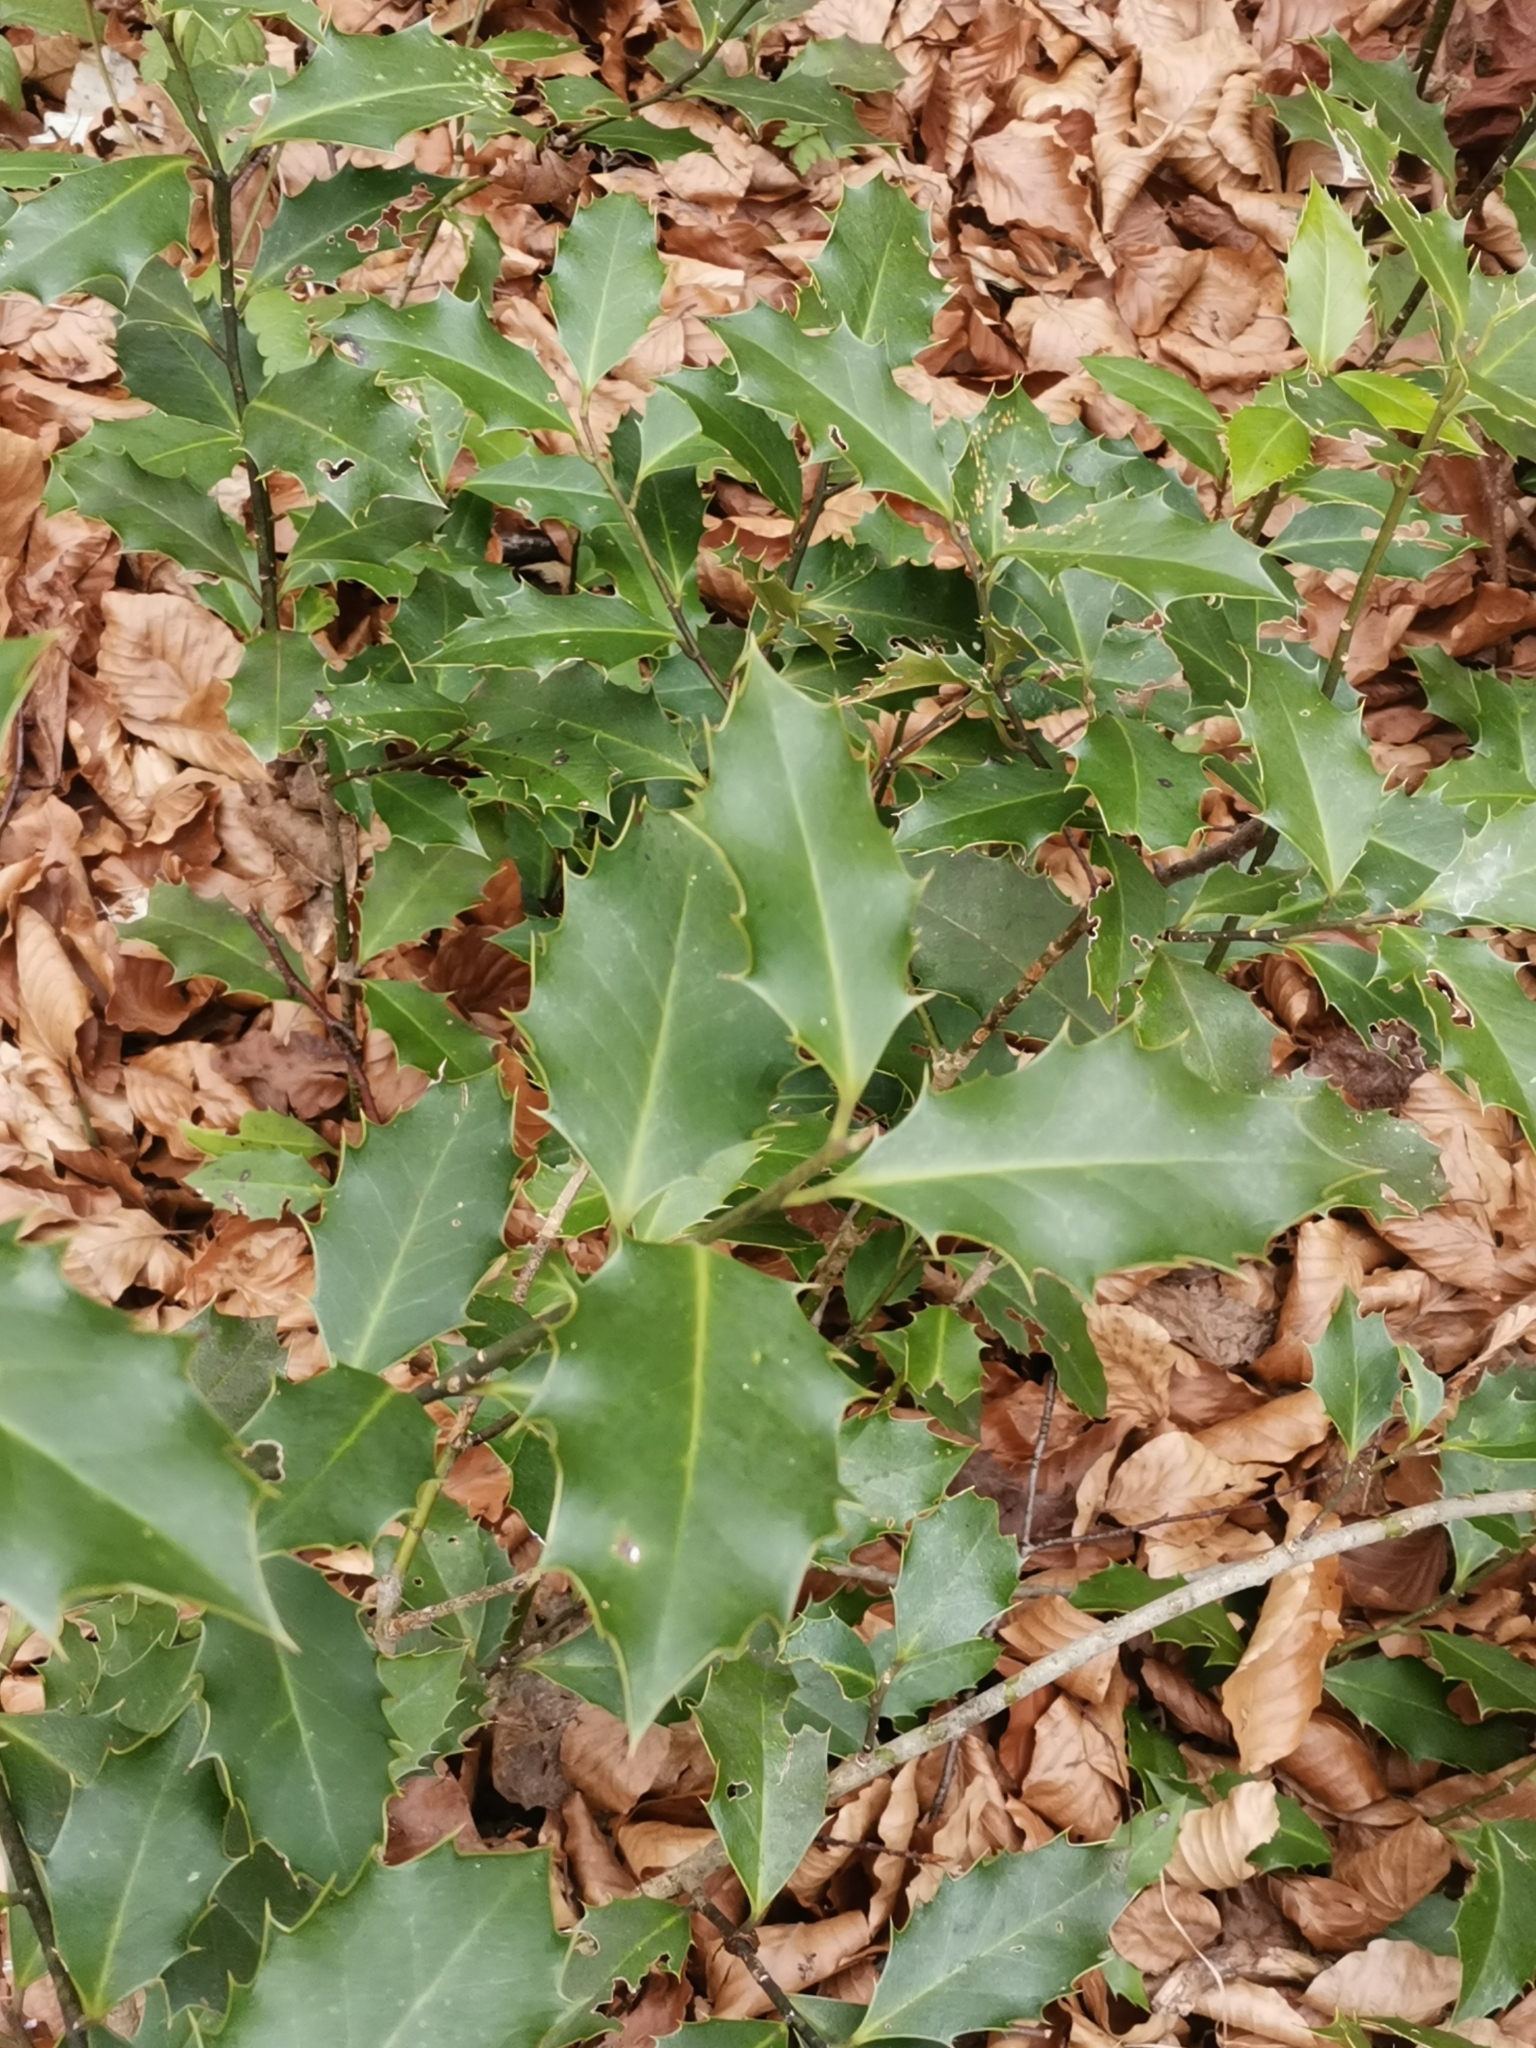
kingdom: Plantae
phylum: Tracheophyta
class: Magnoliopsida
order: Aquifoliales
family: Aquifoliaceae
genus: Ilex
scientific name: Ilex aquifolium
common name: English holly
